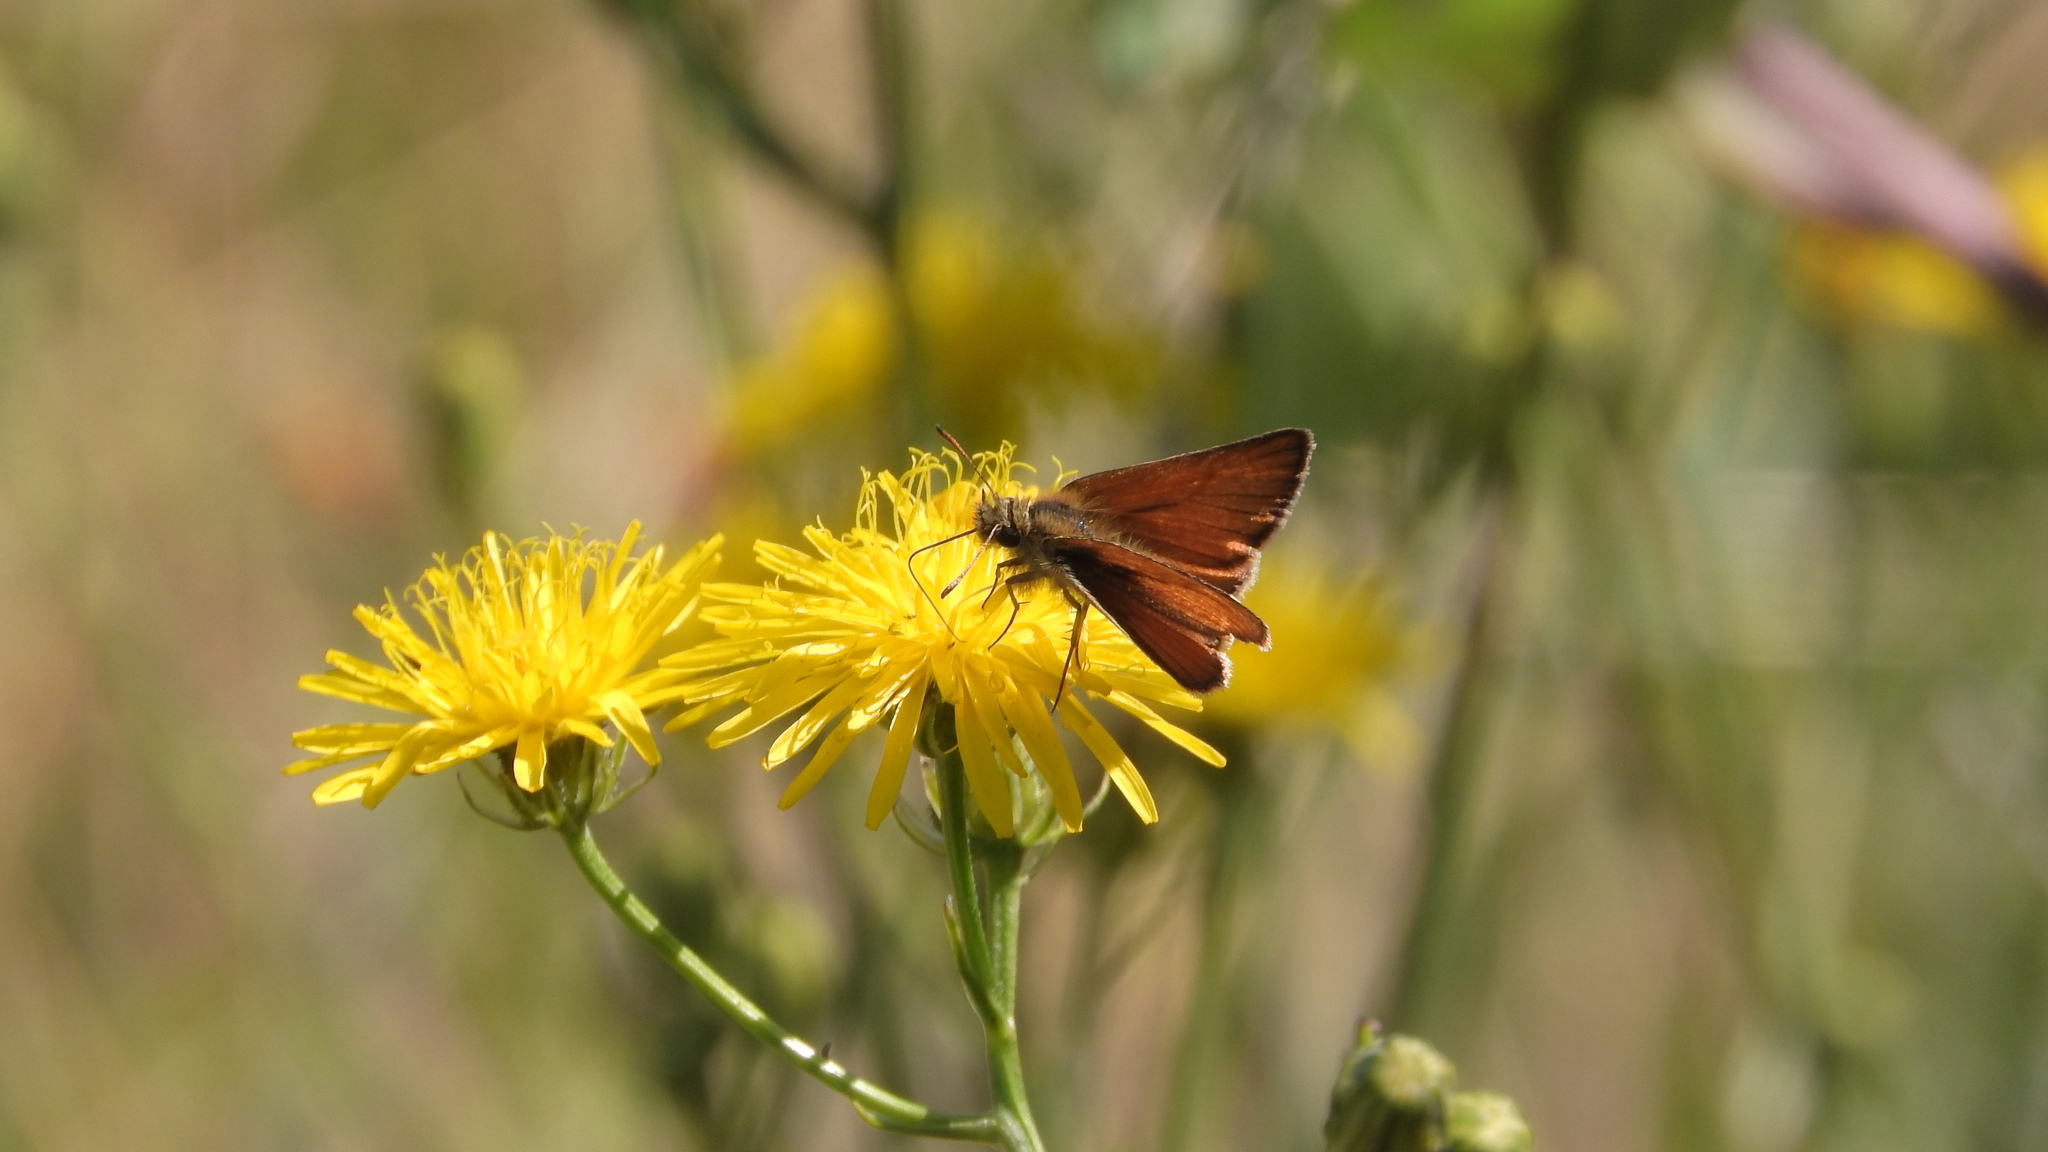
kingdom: Animalia
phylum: Arthropoda
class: Insecta
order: Lepidoptera
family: Hesperiidae
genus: Thymelicus
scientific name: Thymelicus lineola
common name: Essex skipper
